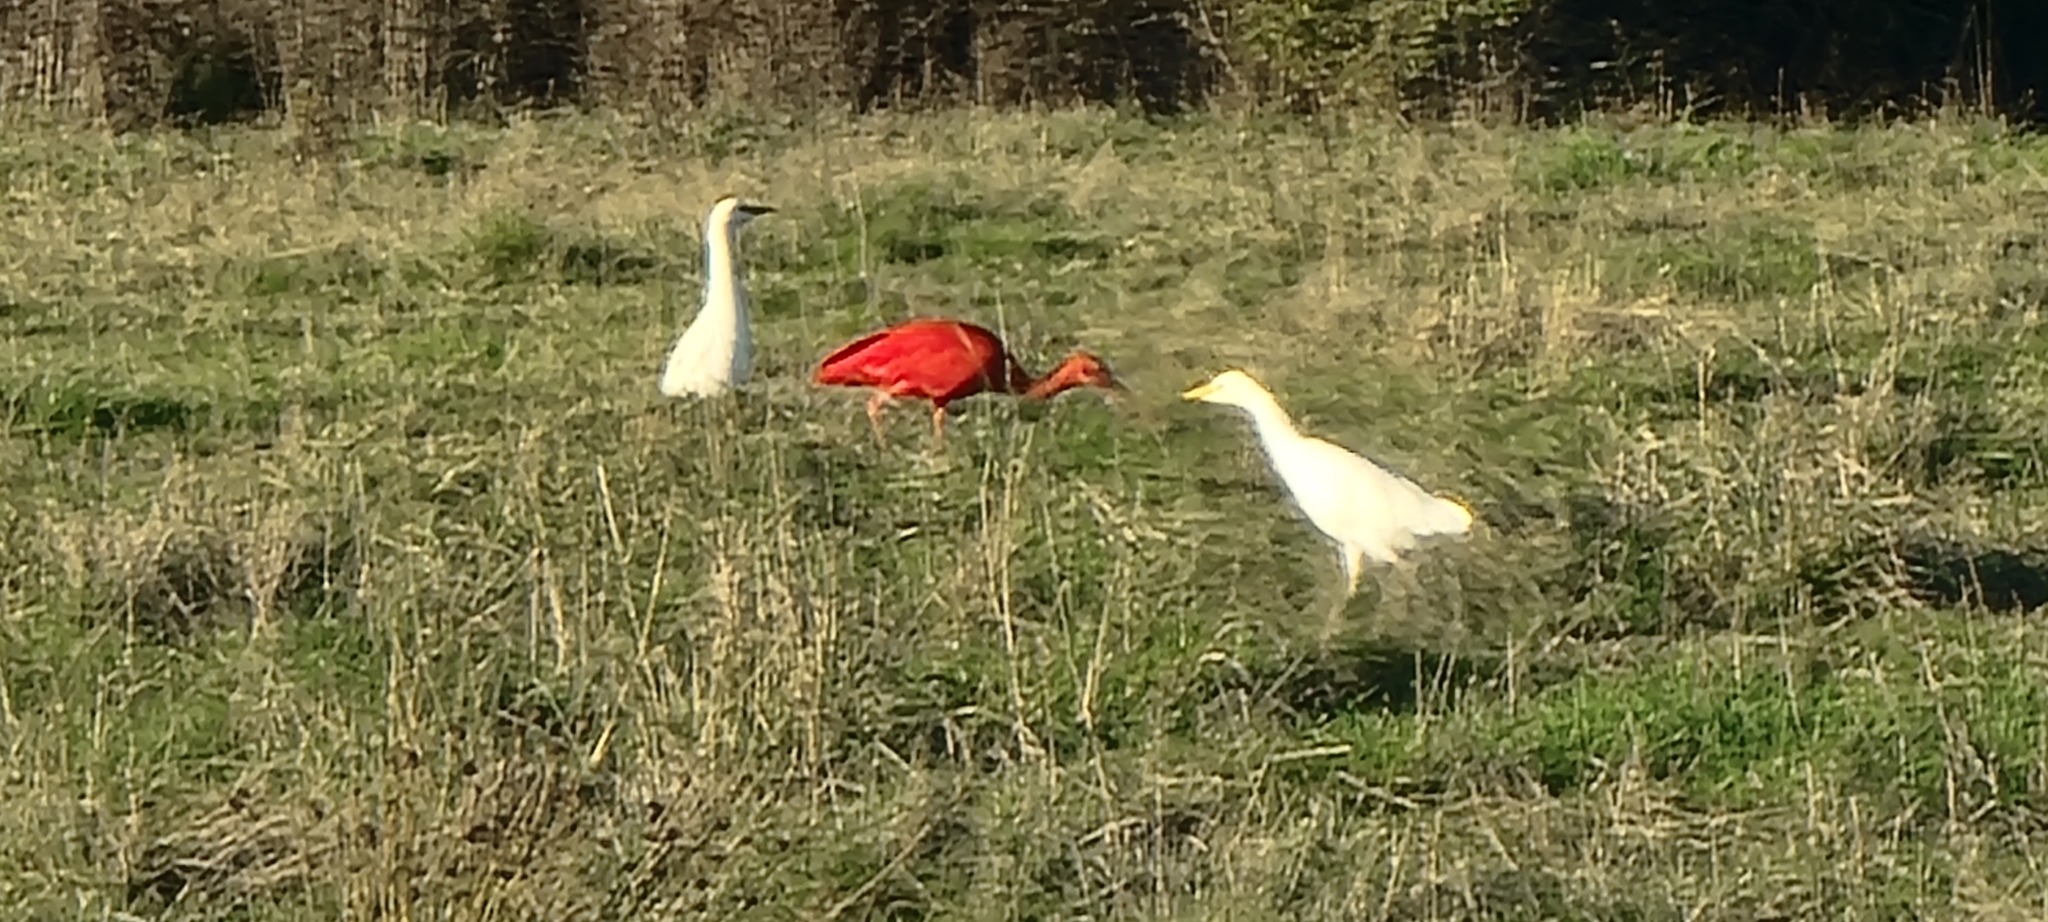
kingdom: Animalia
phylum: Chordata
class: Aves
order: Pelecaniformes
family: Threskiornithidae
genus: Eudocimus
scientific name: Eudocimus ruber
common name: Scarlet ibis
